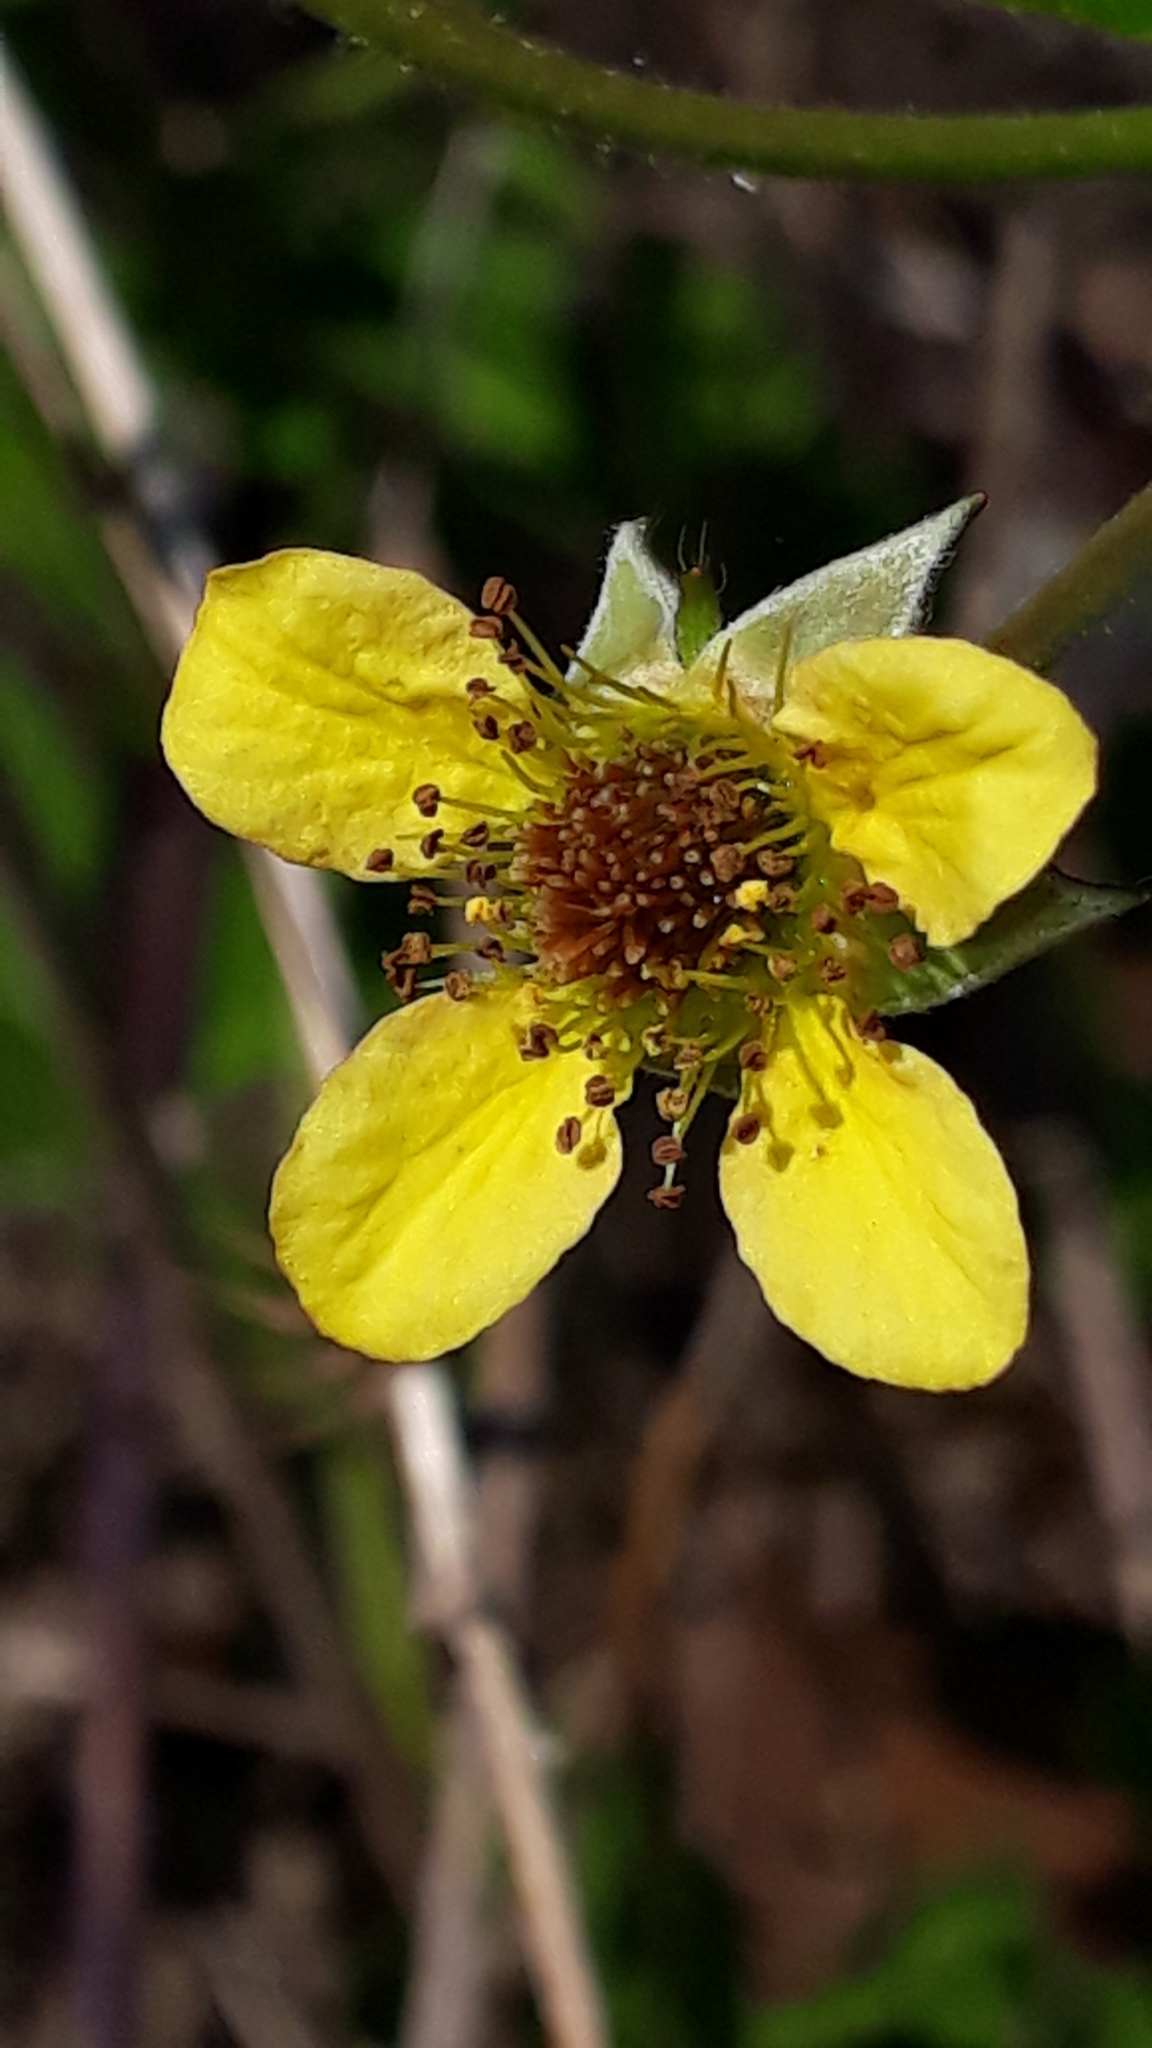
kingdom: Plantae
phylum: Tracheophyta
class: Magnoliopsida
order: Rosales
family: Rosaceae
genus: Geum
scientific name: Geum urbanum
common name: Wood avens
